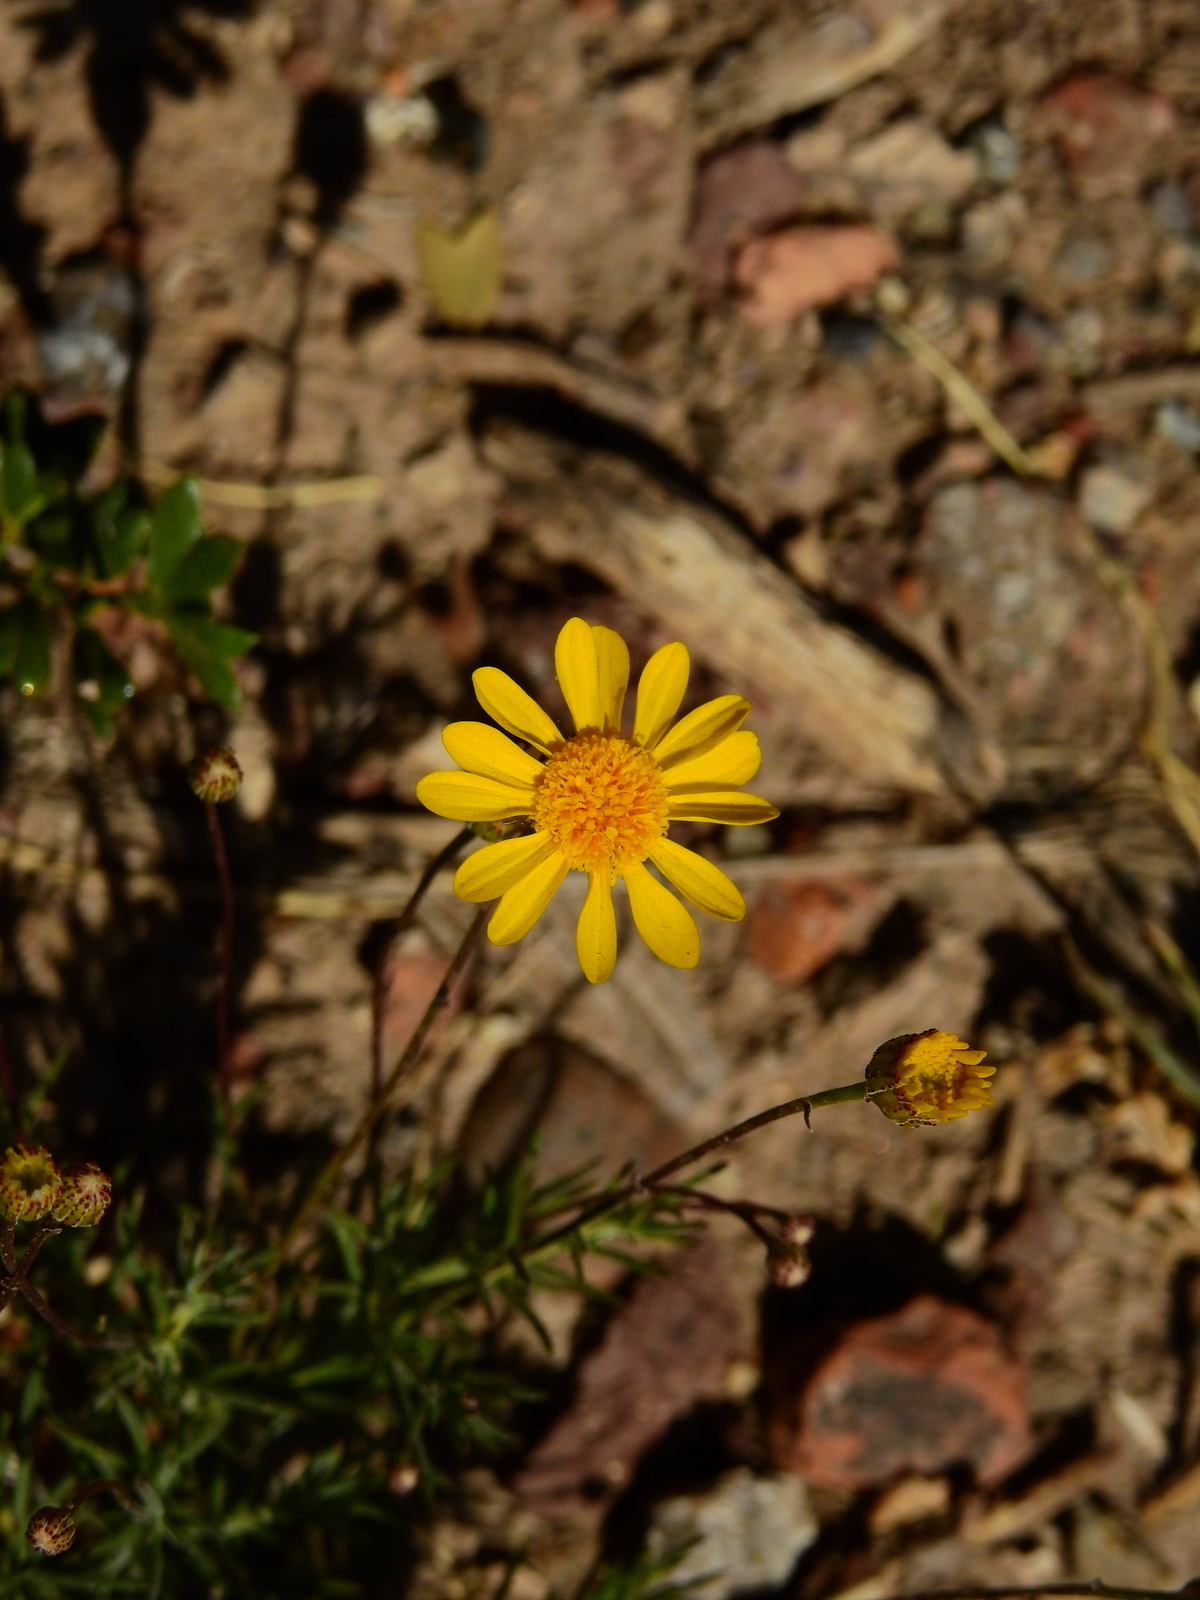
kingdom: Plantae
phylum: Tracheophyta
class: Magnoliopsida
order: Asterales
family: Asteraceae
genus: Thymophylla
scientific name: Thymophylla pentachaeta
